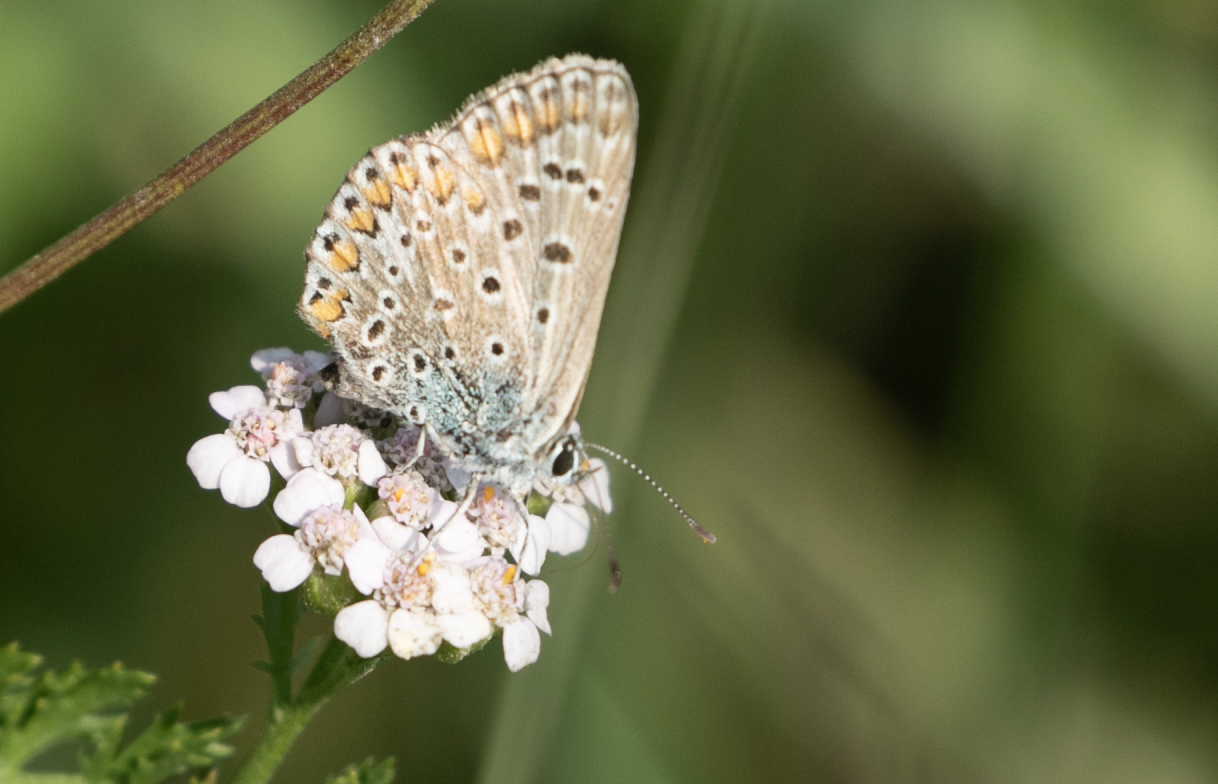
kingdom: Animalia
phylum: Arthropoda
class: Insecta
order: Lepidoptera
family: Lycaenidae
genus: Polyommatus
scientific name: Polyommatus icarus
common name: Common blue
